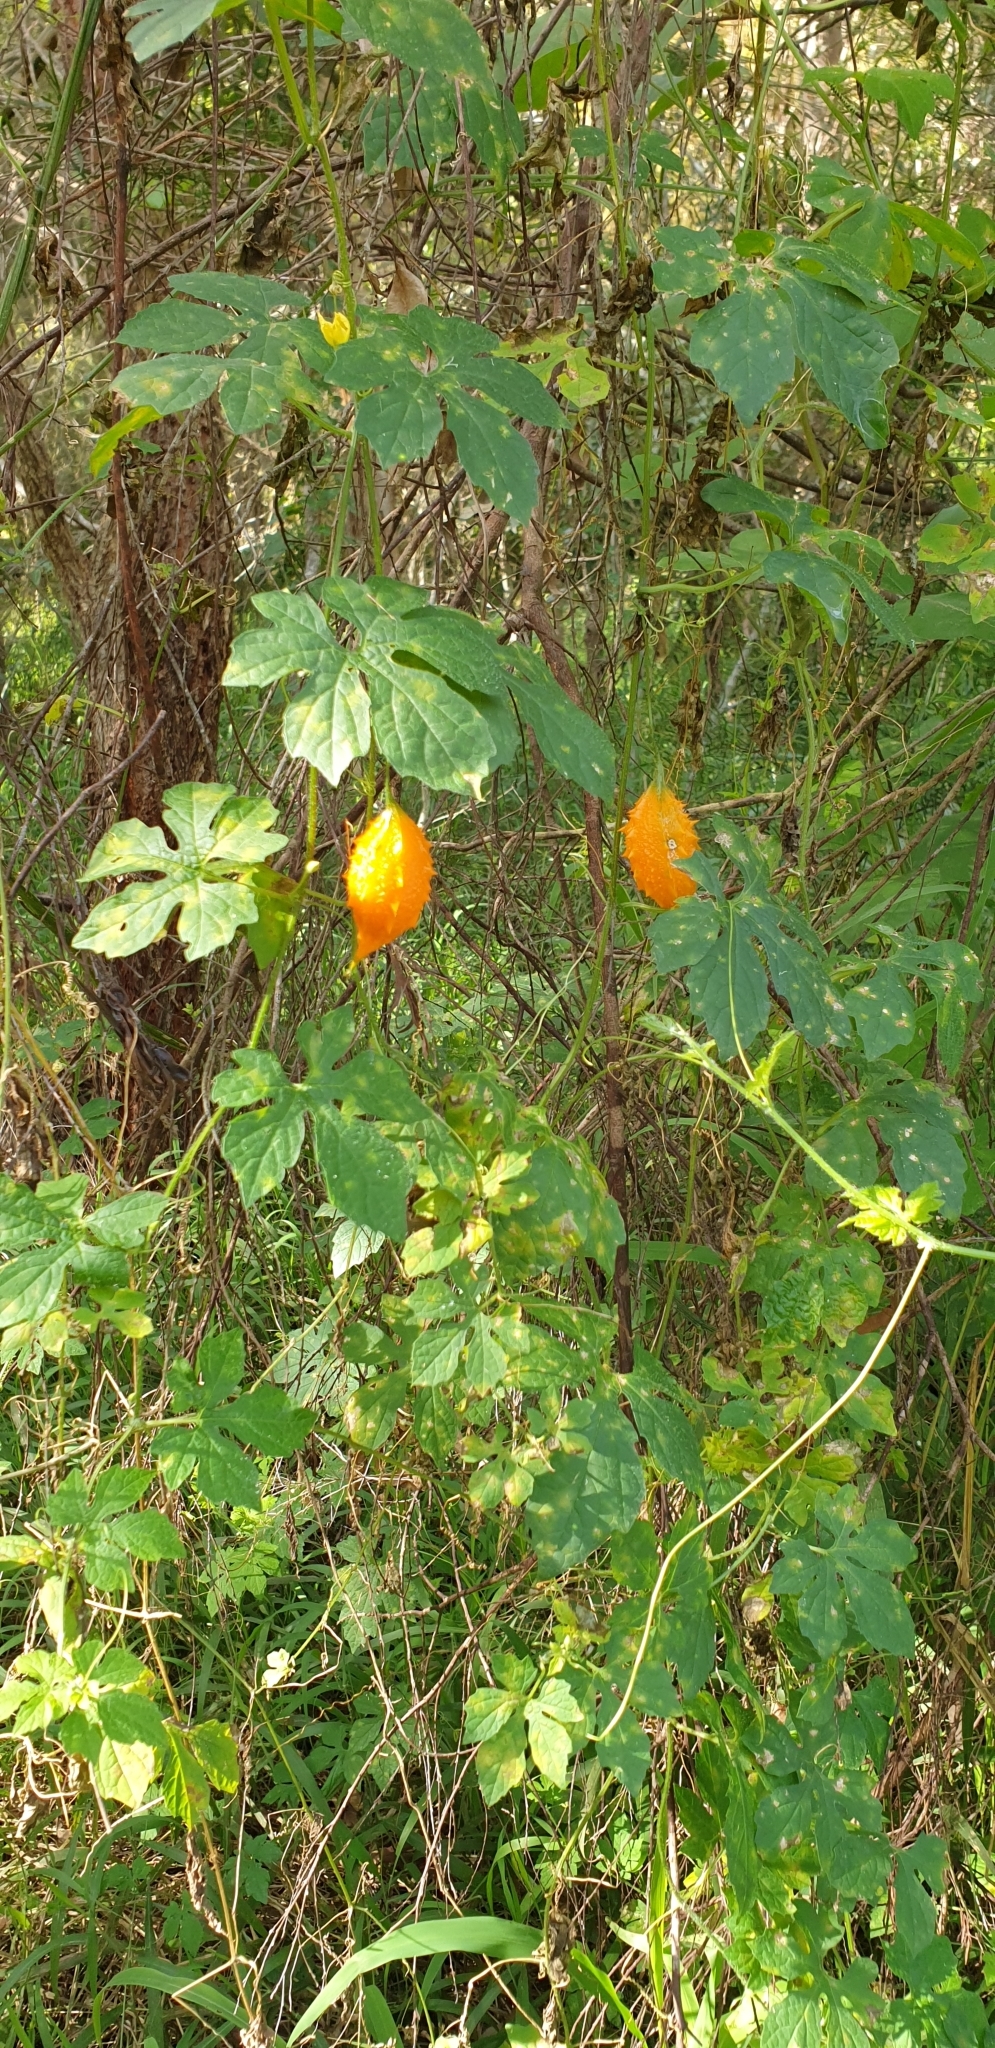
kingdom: Plantae
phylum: Tracheophyta
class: Magnoliopsida
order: Cucurbitales
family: Cucurbitaceae
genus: Momordica
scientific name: Momordica charantia
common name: Balsampear
